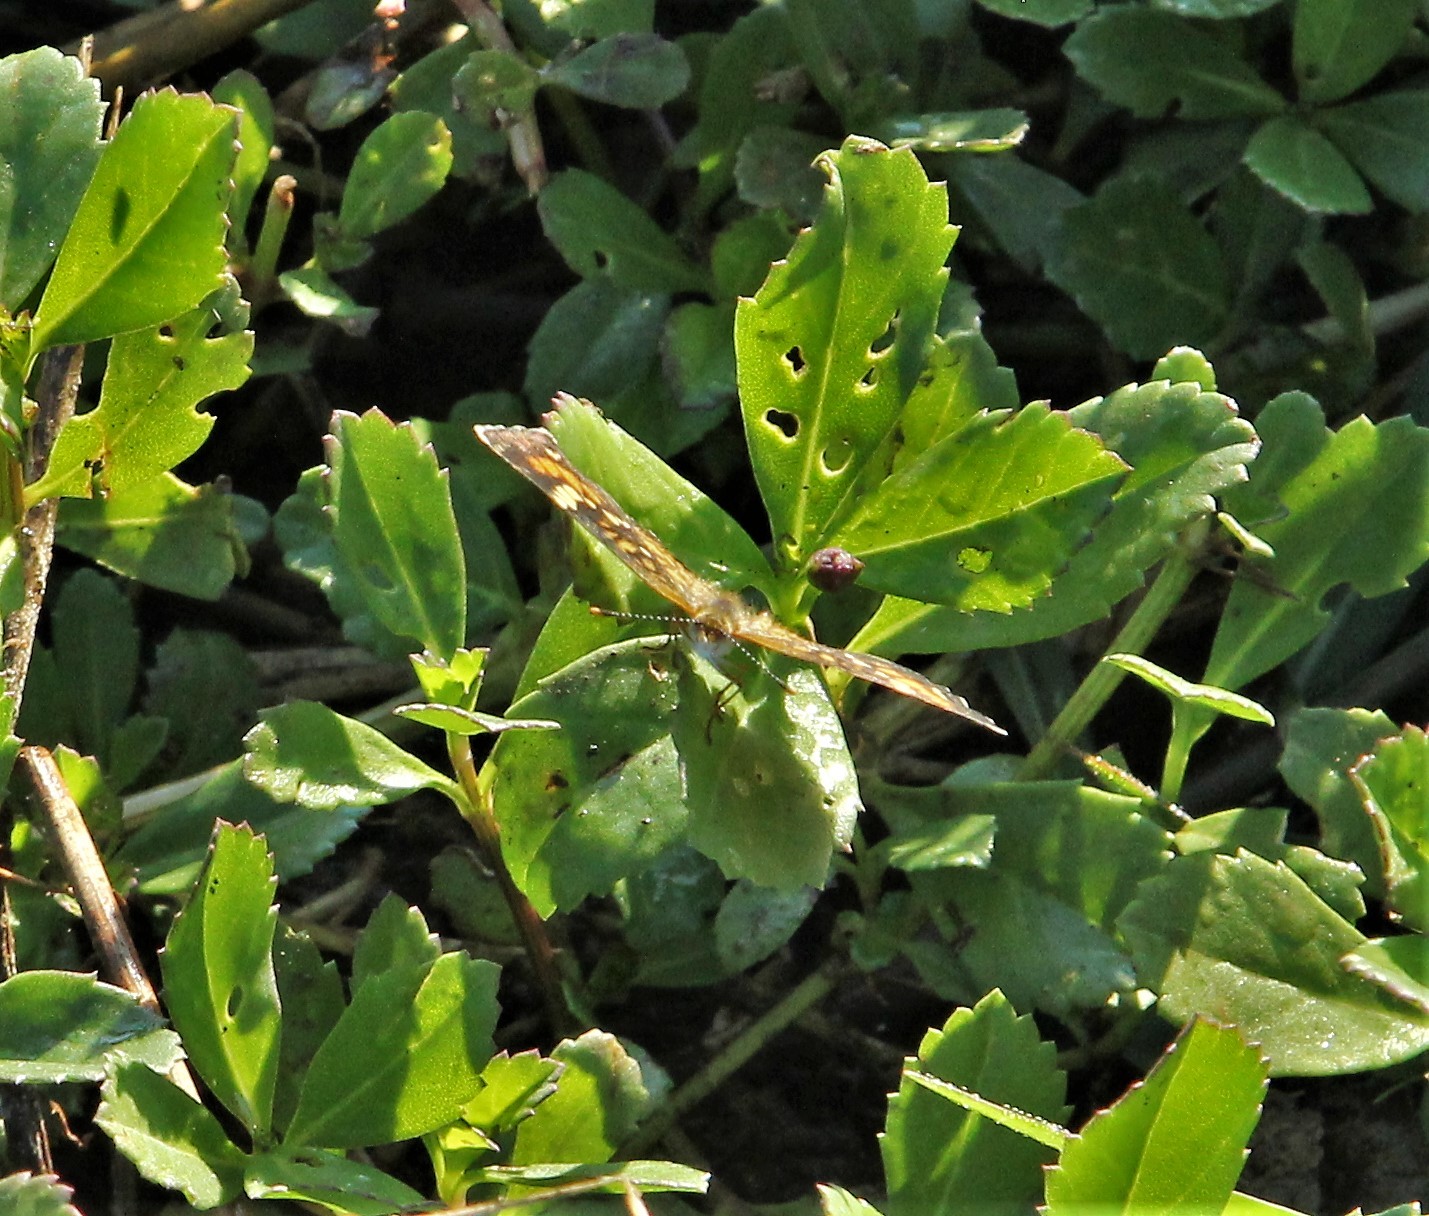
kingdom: Animalia
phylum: Arthropoda
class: Insecta
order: Lepidoptera
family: Nymphalidae
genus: Phyciodes
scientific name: Phyciodes phaon
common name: Phaon crescent
